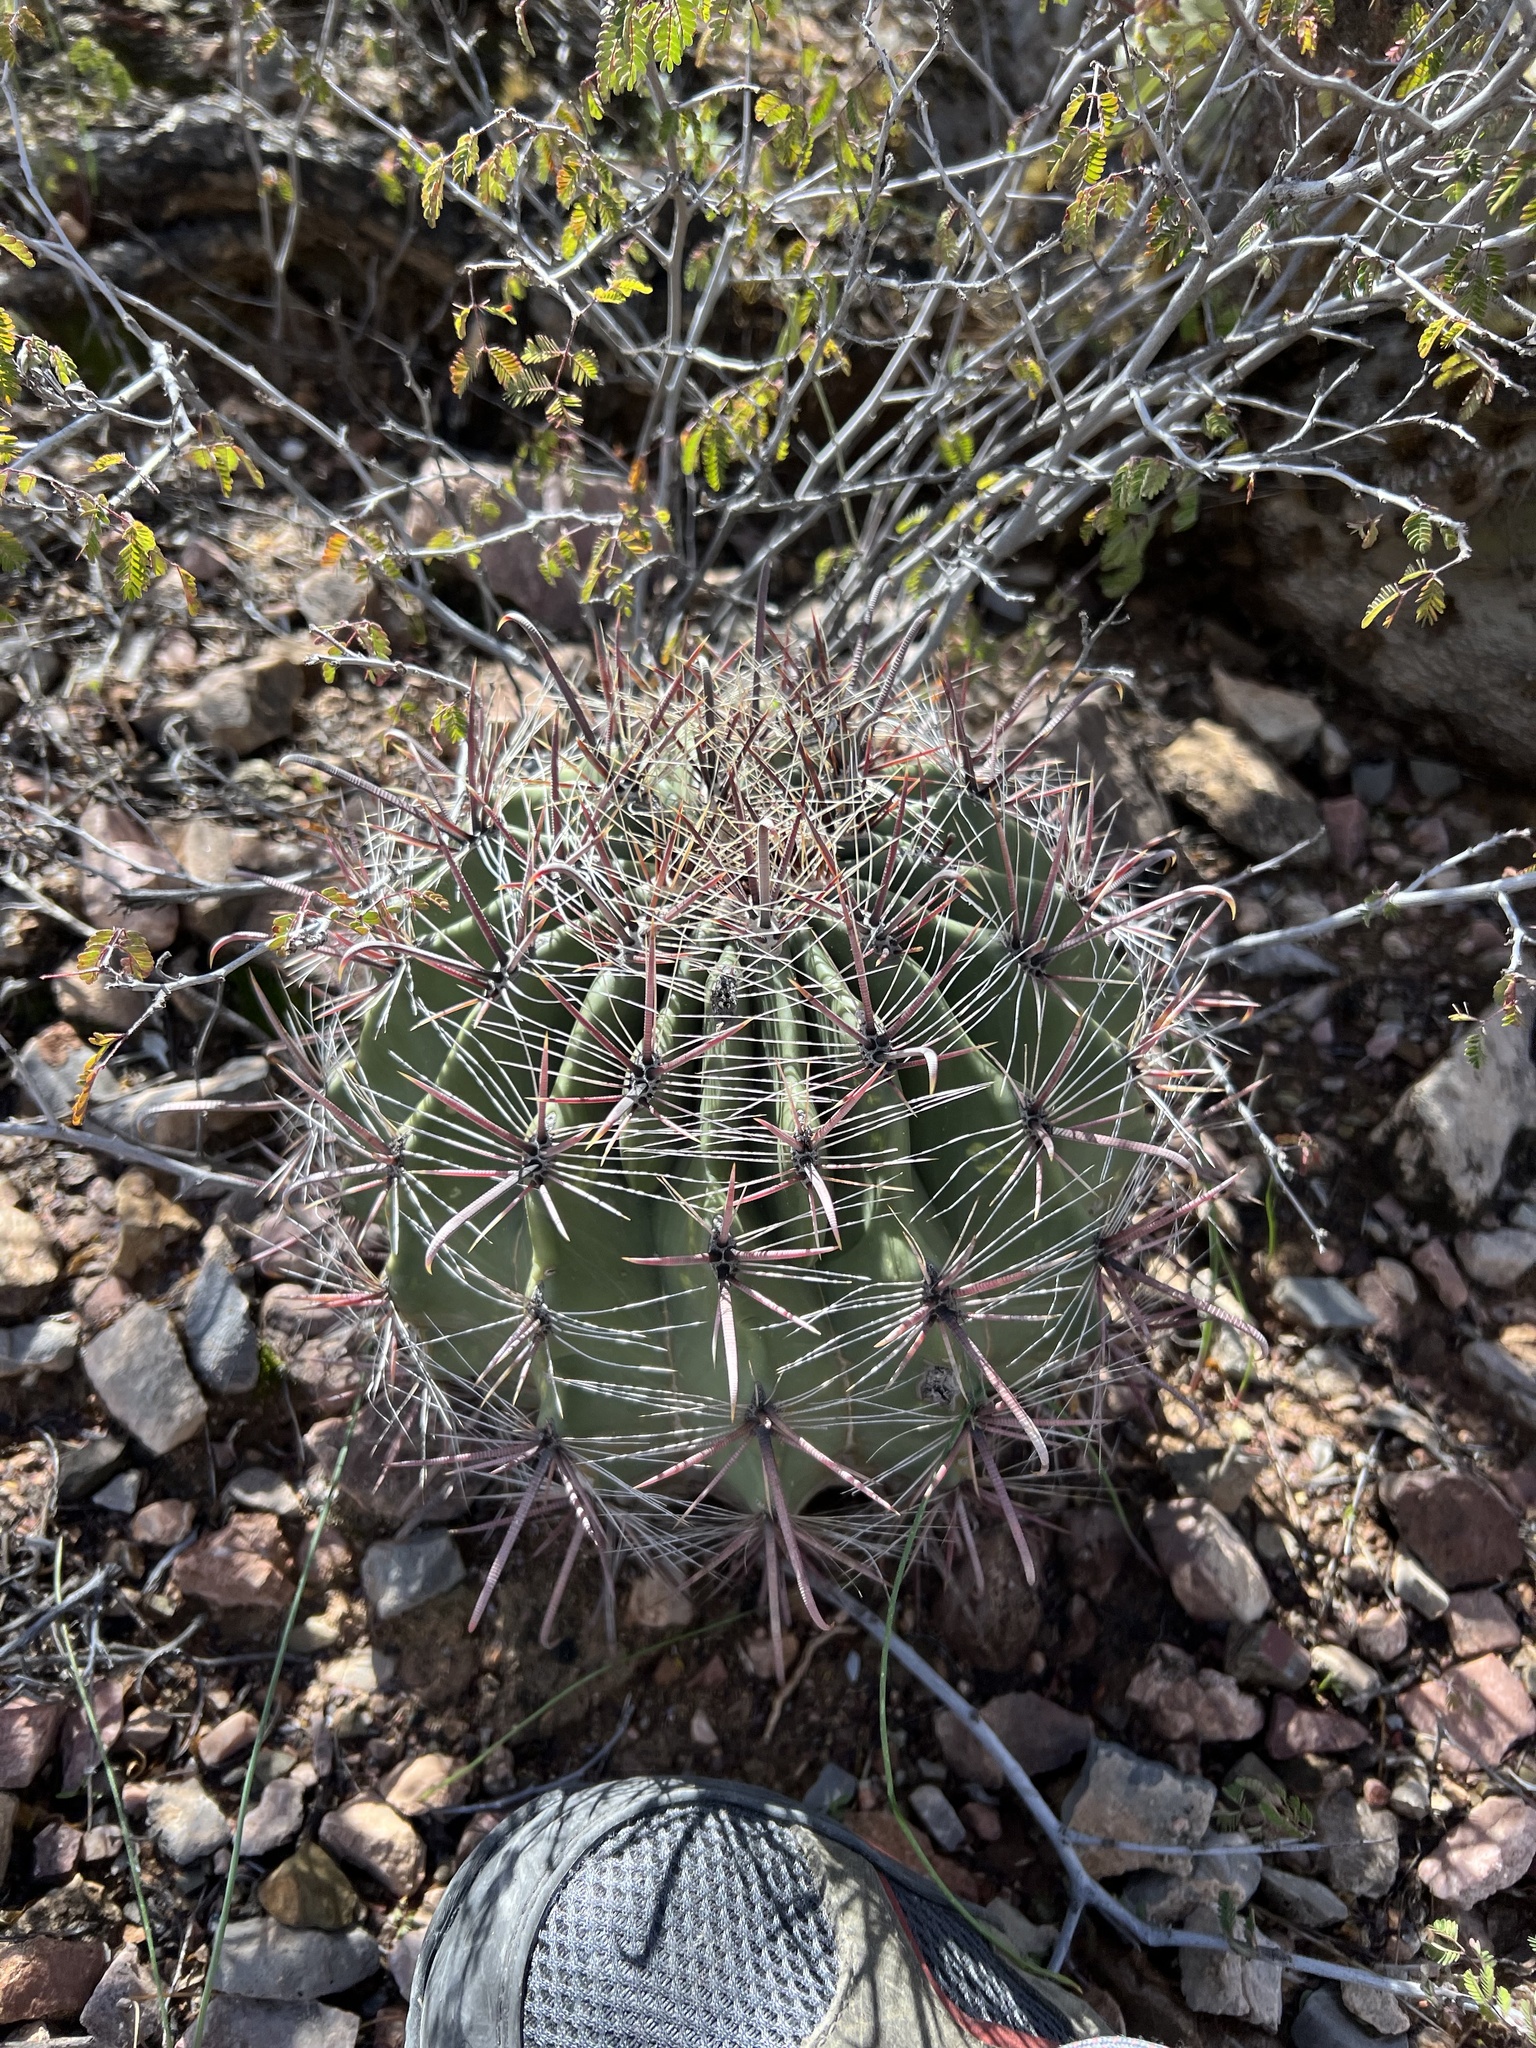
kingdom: Plantae
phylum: Tracheophyta
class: Magnoliopsida
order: Caryophyllales
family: Cactaceae
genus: Ferocactus
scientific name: Ferocactus wislizeni
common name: Candy barrel cactus
